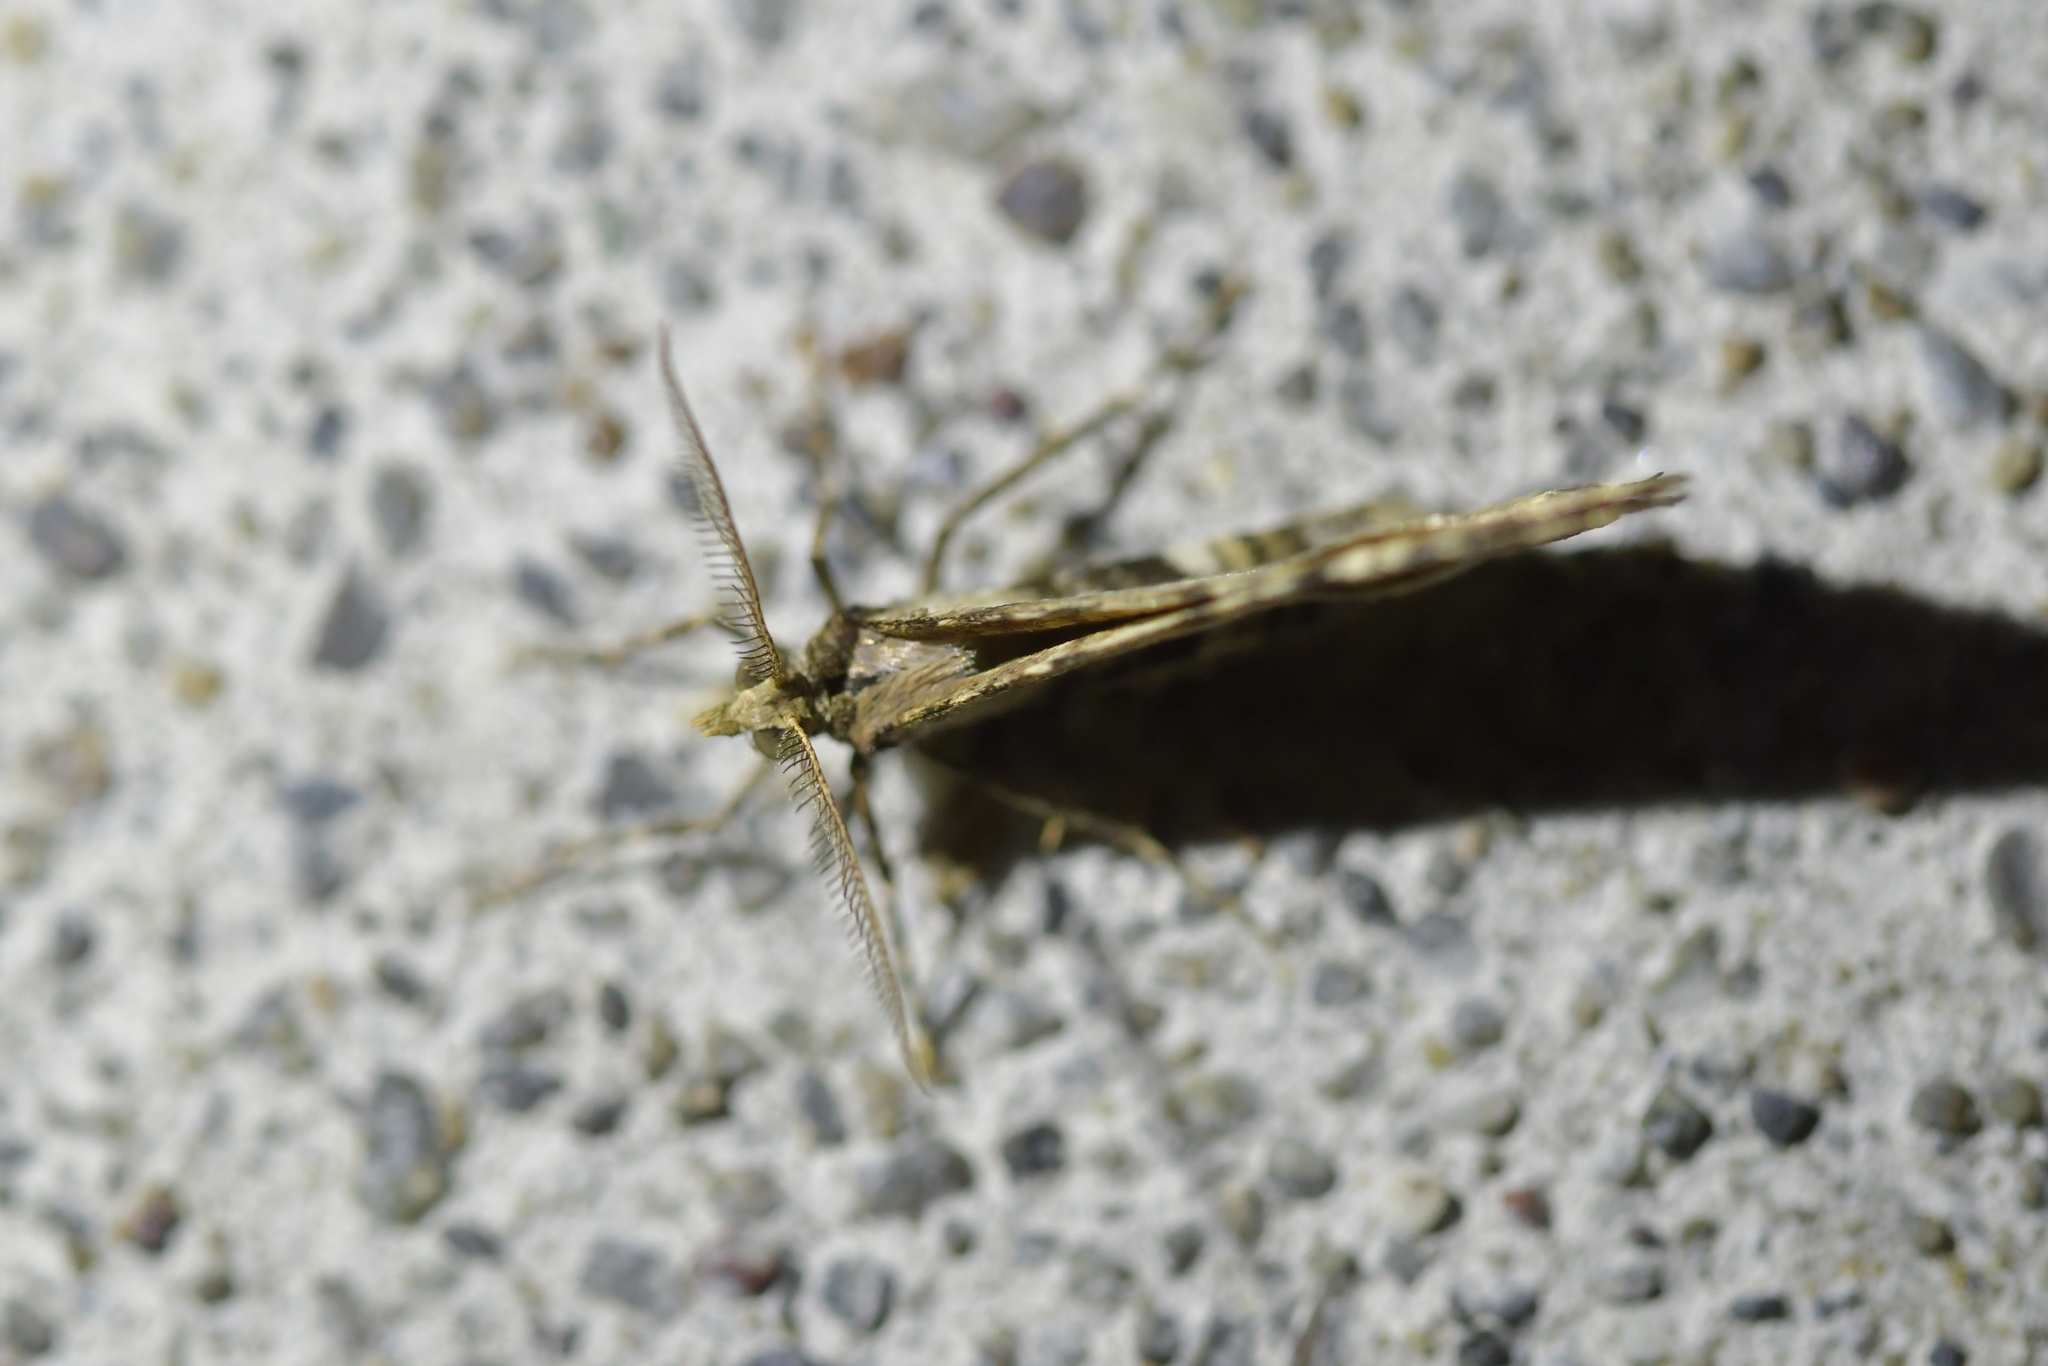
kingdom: Animalia
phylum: Arthropoda
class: Insecta
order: Lepidoptera
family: Geometridae
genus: Epyaxa
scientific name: Epyaxa rosearia
